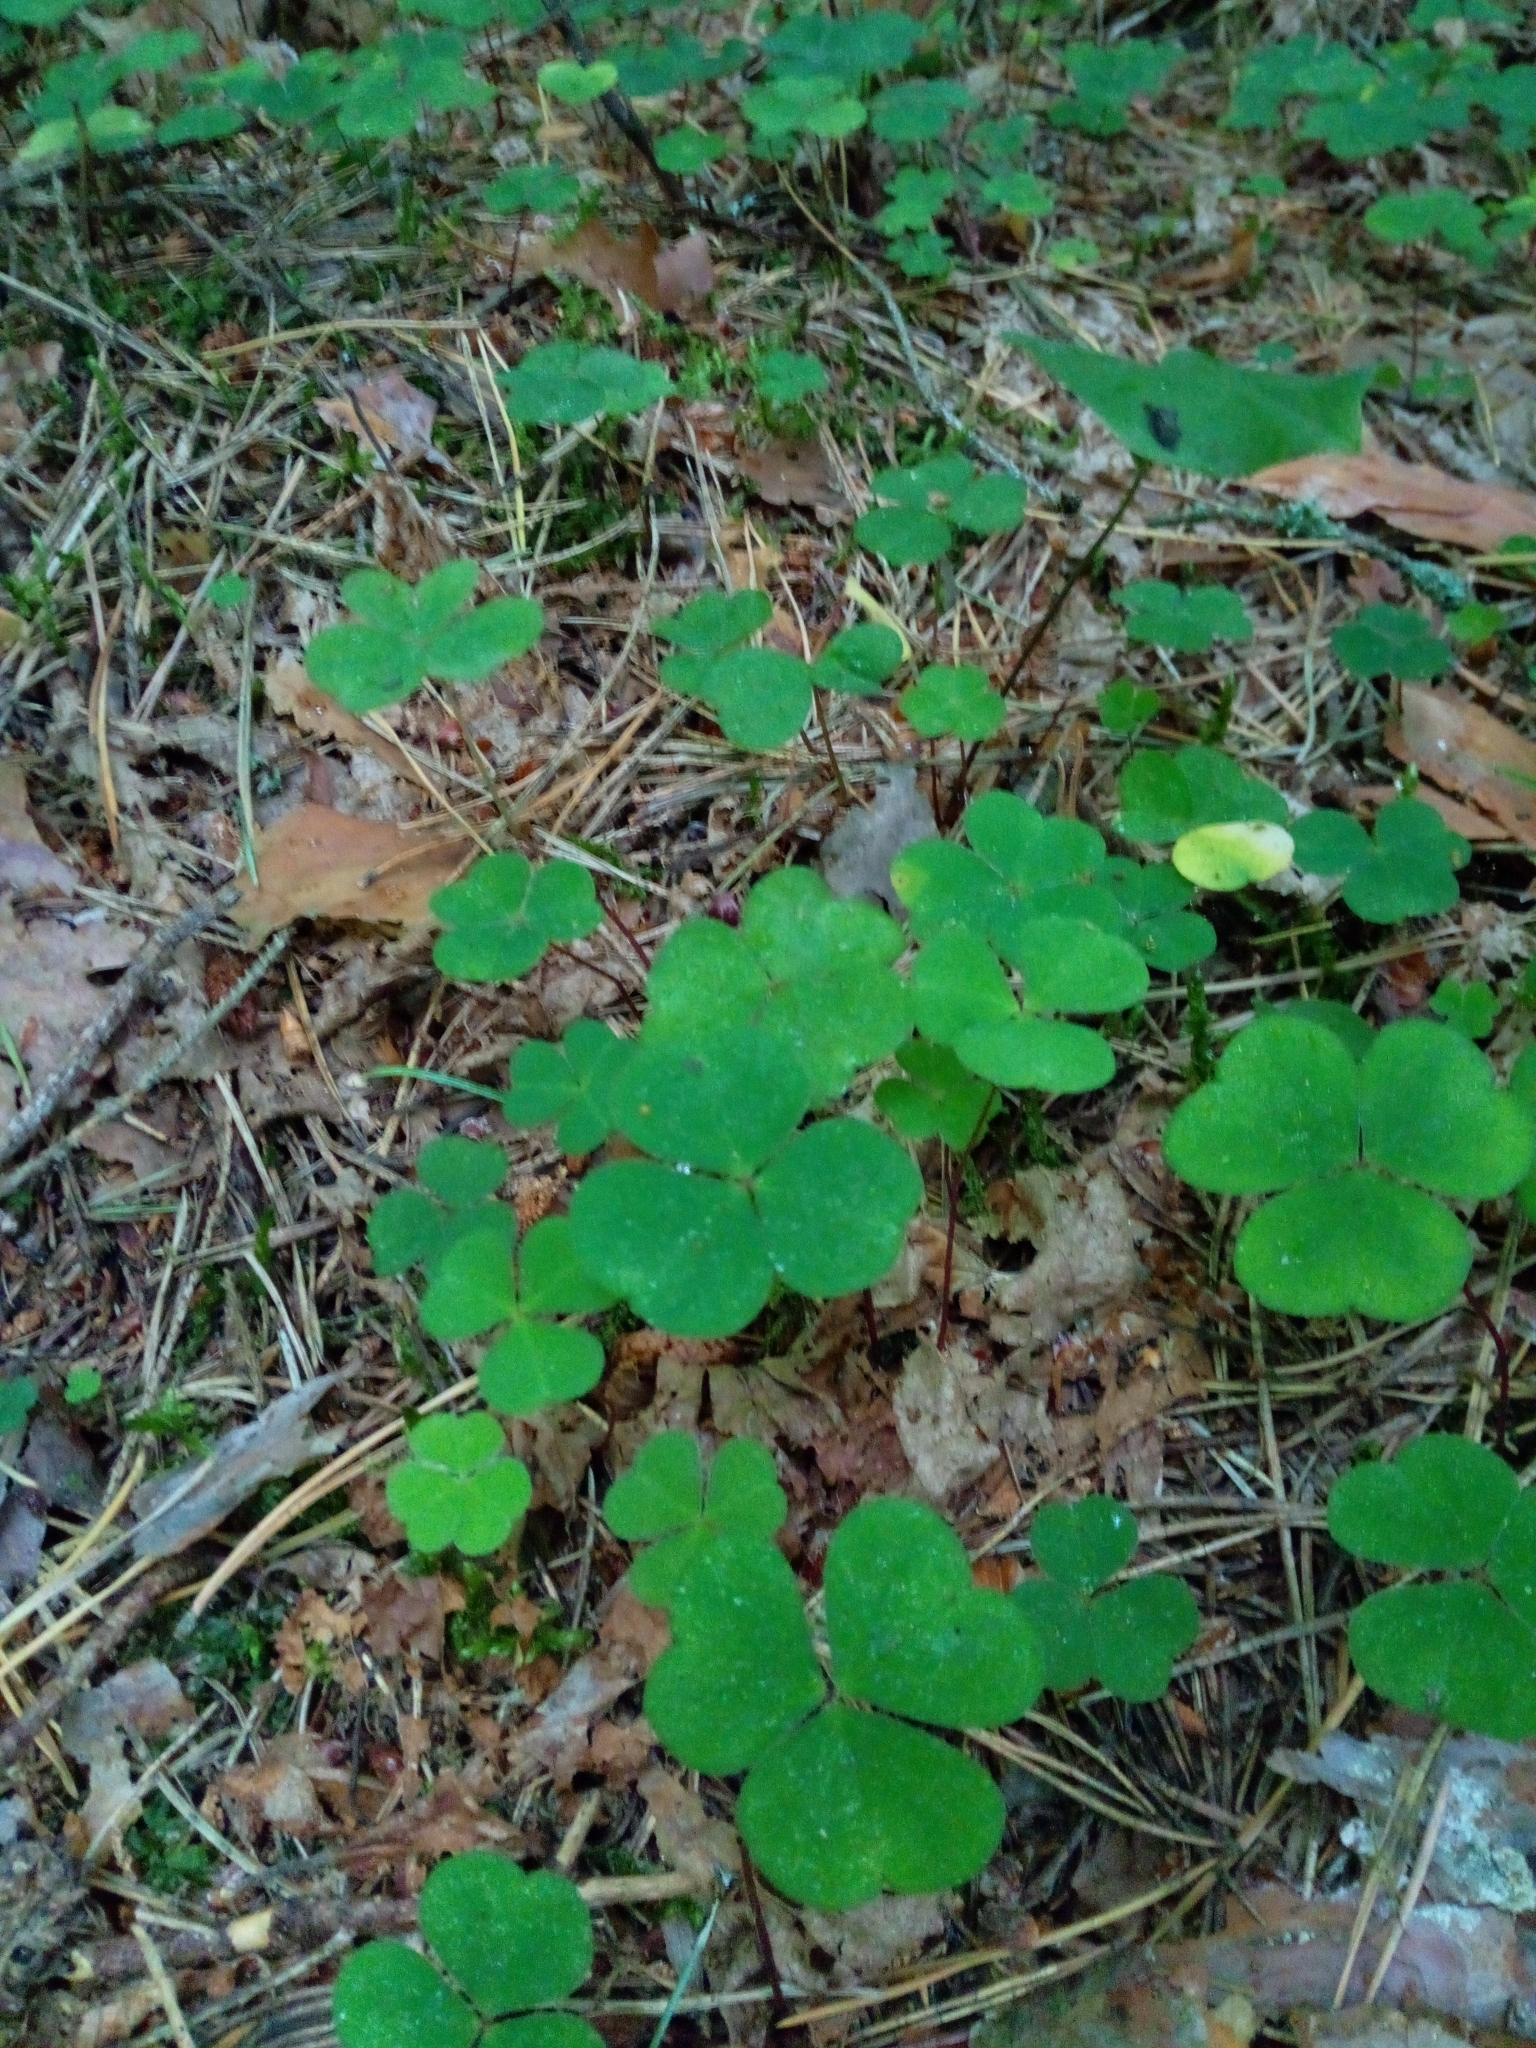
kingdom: Plantae
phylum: Tracheophyta
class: Magnoliopsida
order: Oxalidales
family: Oxalidaceae
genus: Oxalis
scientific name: Oxalis acetosella
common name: Wood-sorrel
